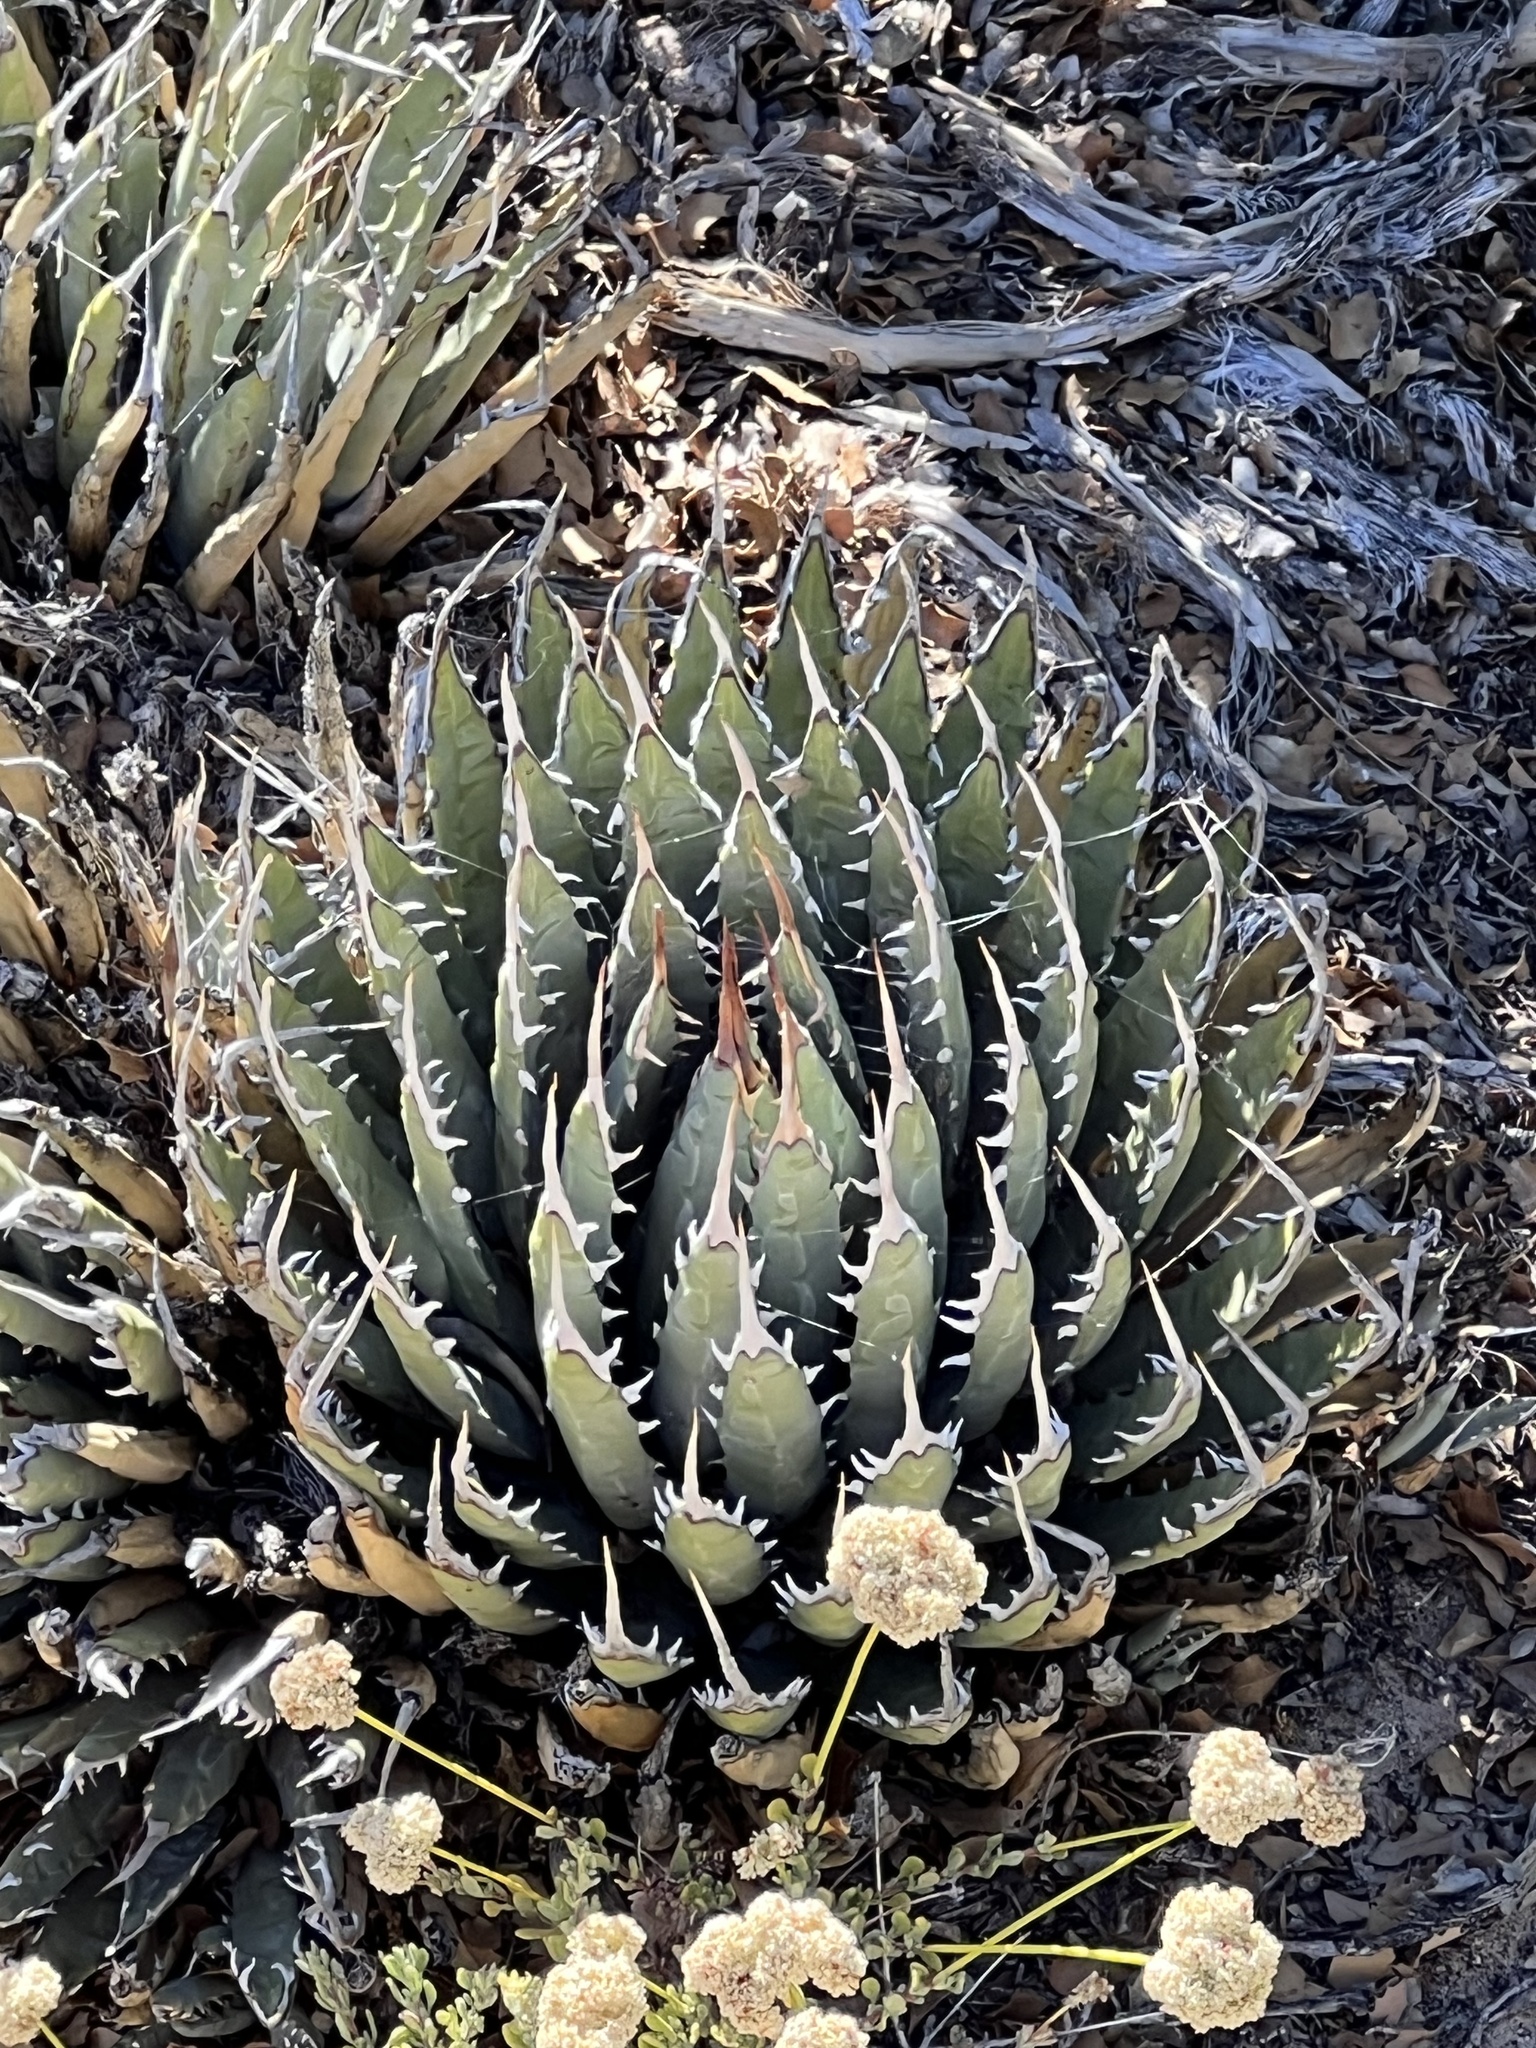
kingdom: Plantae
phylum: Tracheophyta
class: Liliopsida
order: Asparagales
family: Asparagaceae
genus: Agave
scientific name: Agave utahensis
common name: Utah agave
